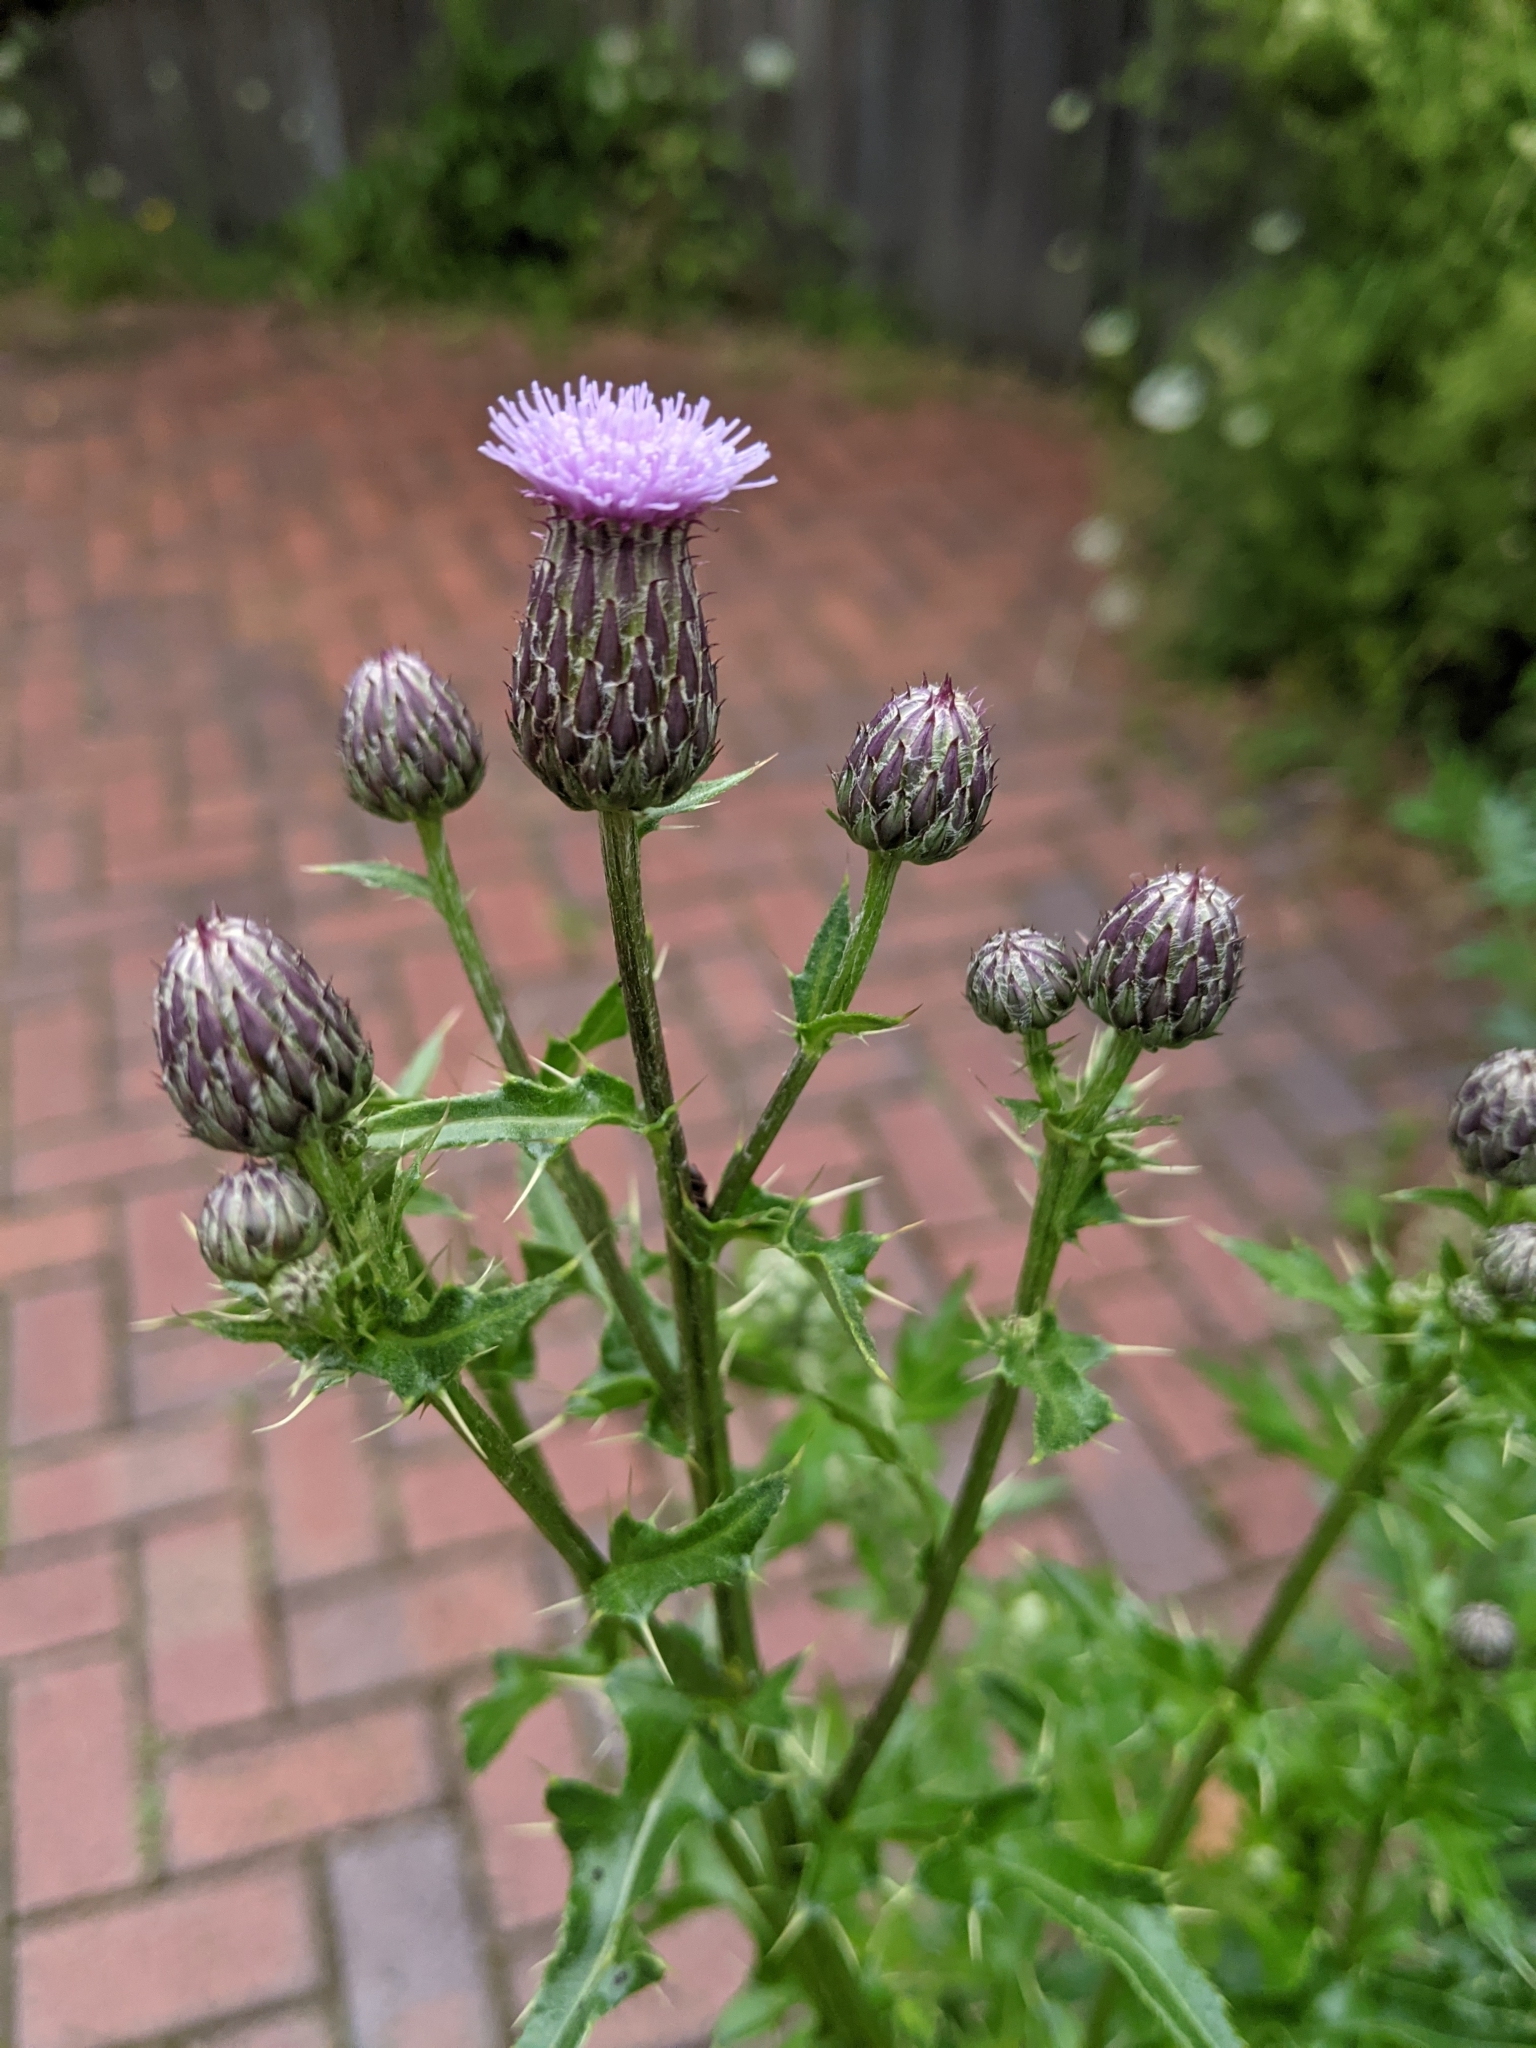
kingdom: Plantae
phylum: Tracheophyta
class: Magnoliopsida
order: Asterales
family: Asteraceae
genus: Cirsium
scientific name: Cirsium arvense
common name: Creeping thistle
